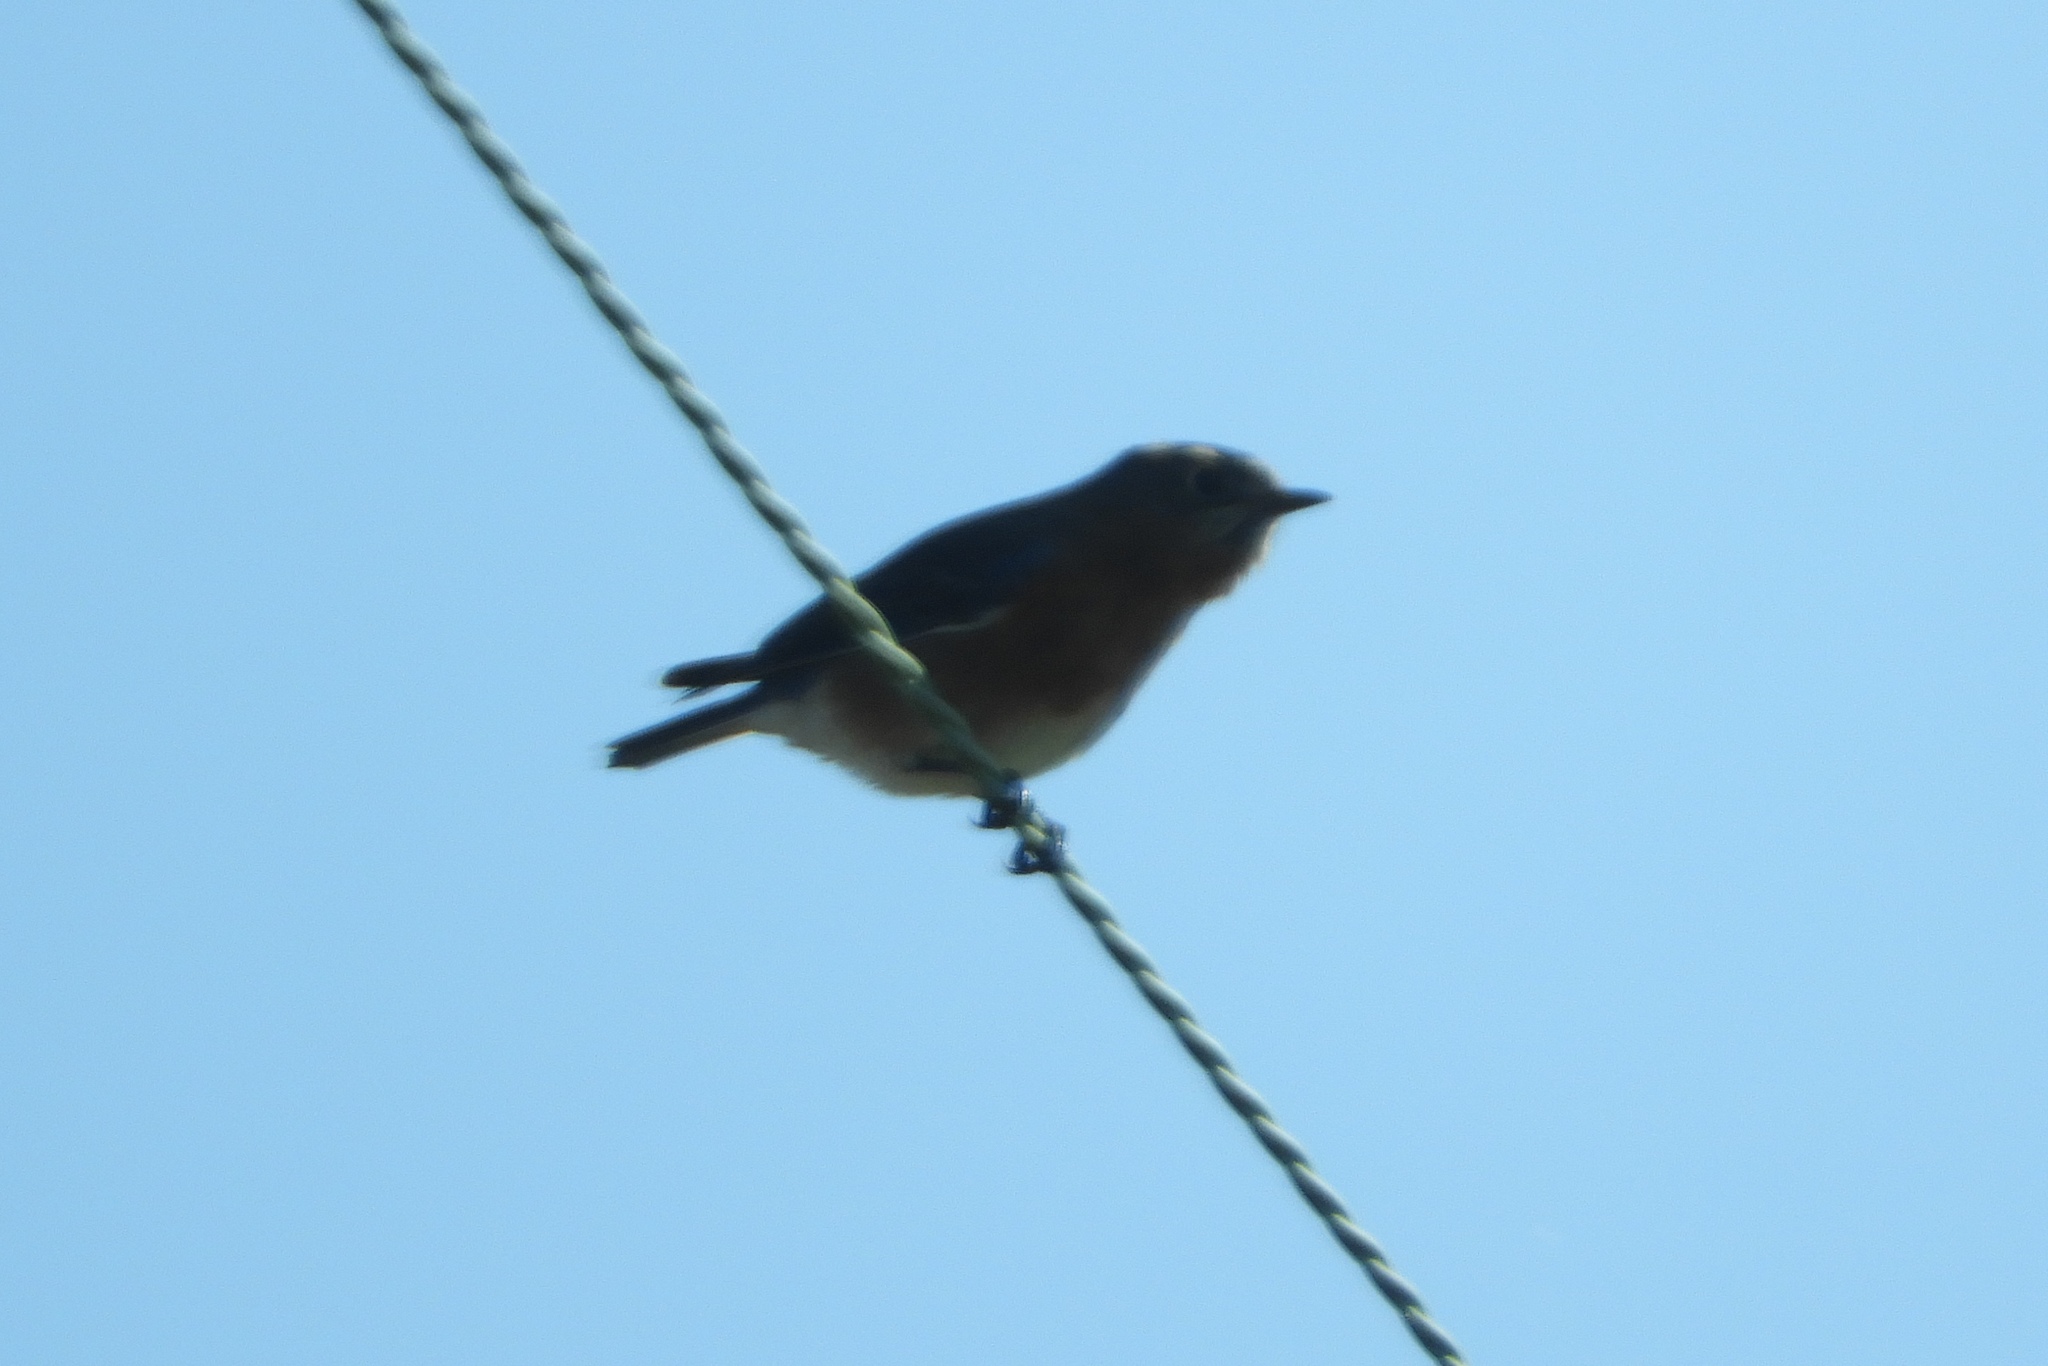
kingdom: Animalia
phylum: Chordata
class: Aves
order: Passeriformes
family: Turdidae
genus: Sialia
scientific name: Sialia sialis
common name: Eastern bluebird
